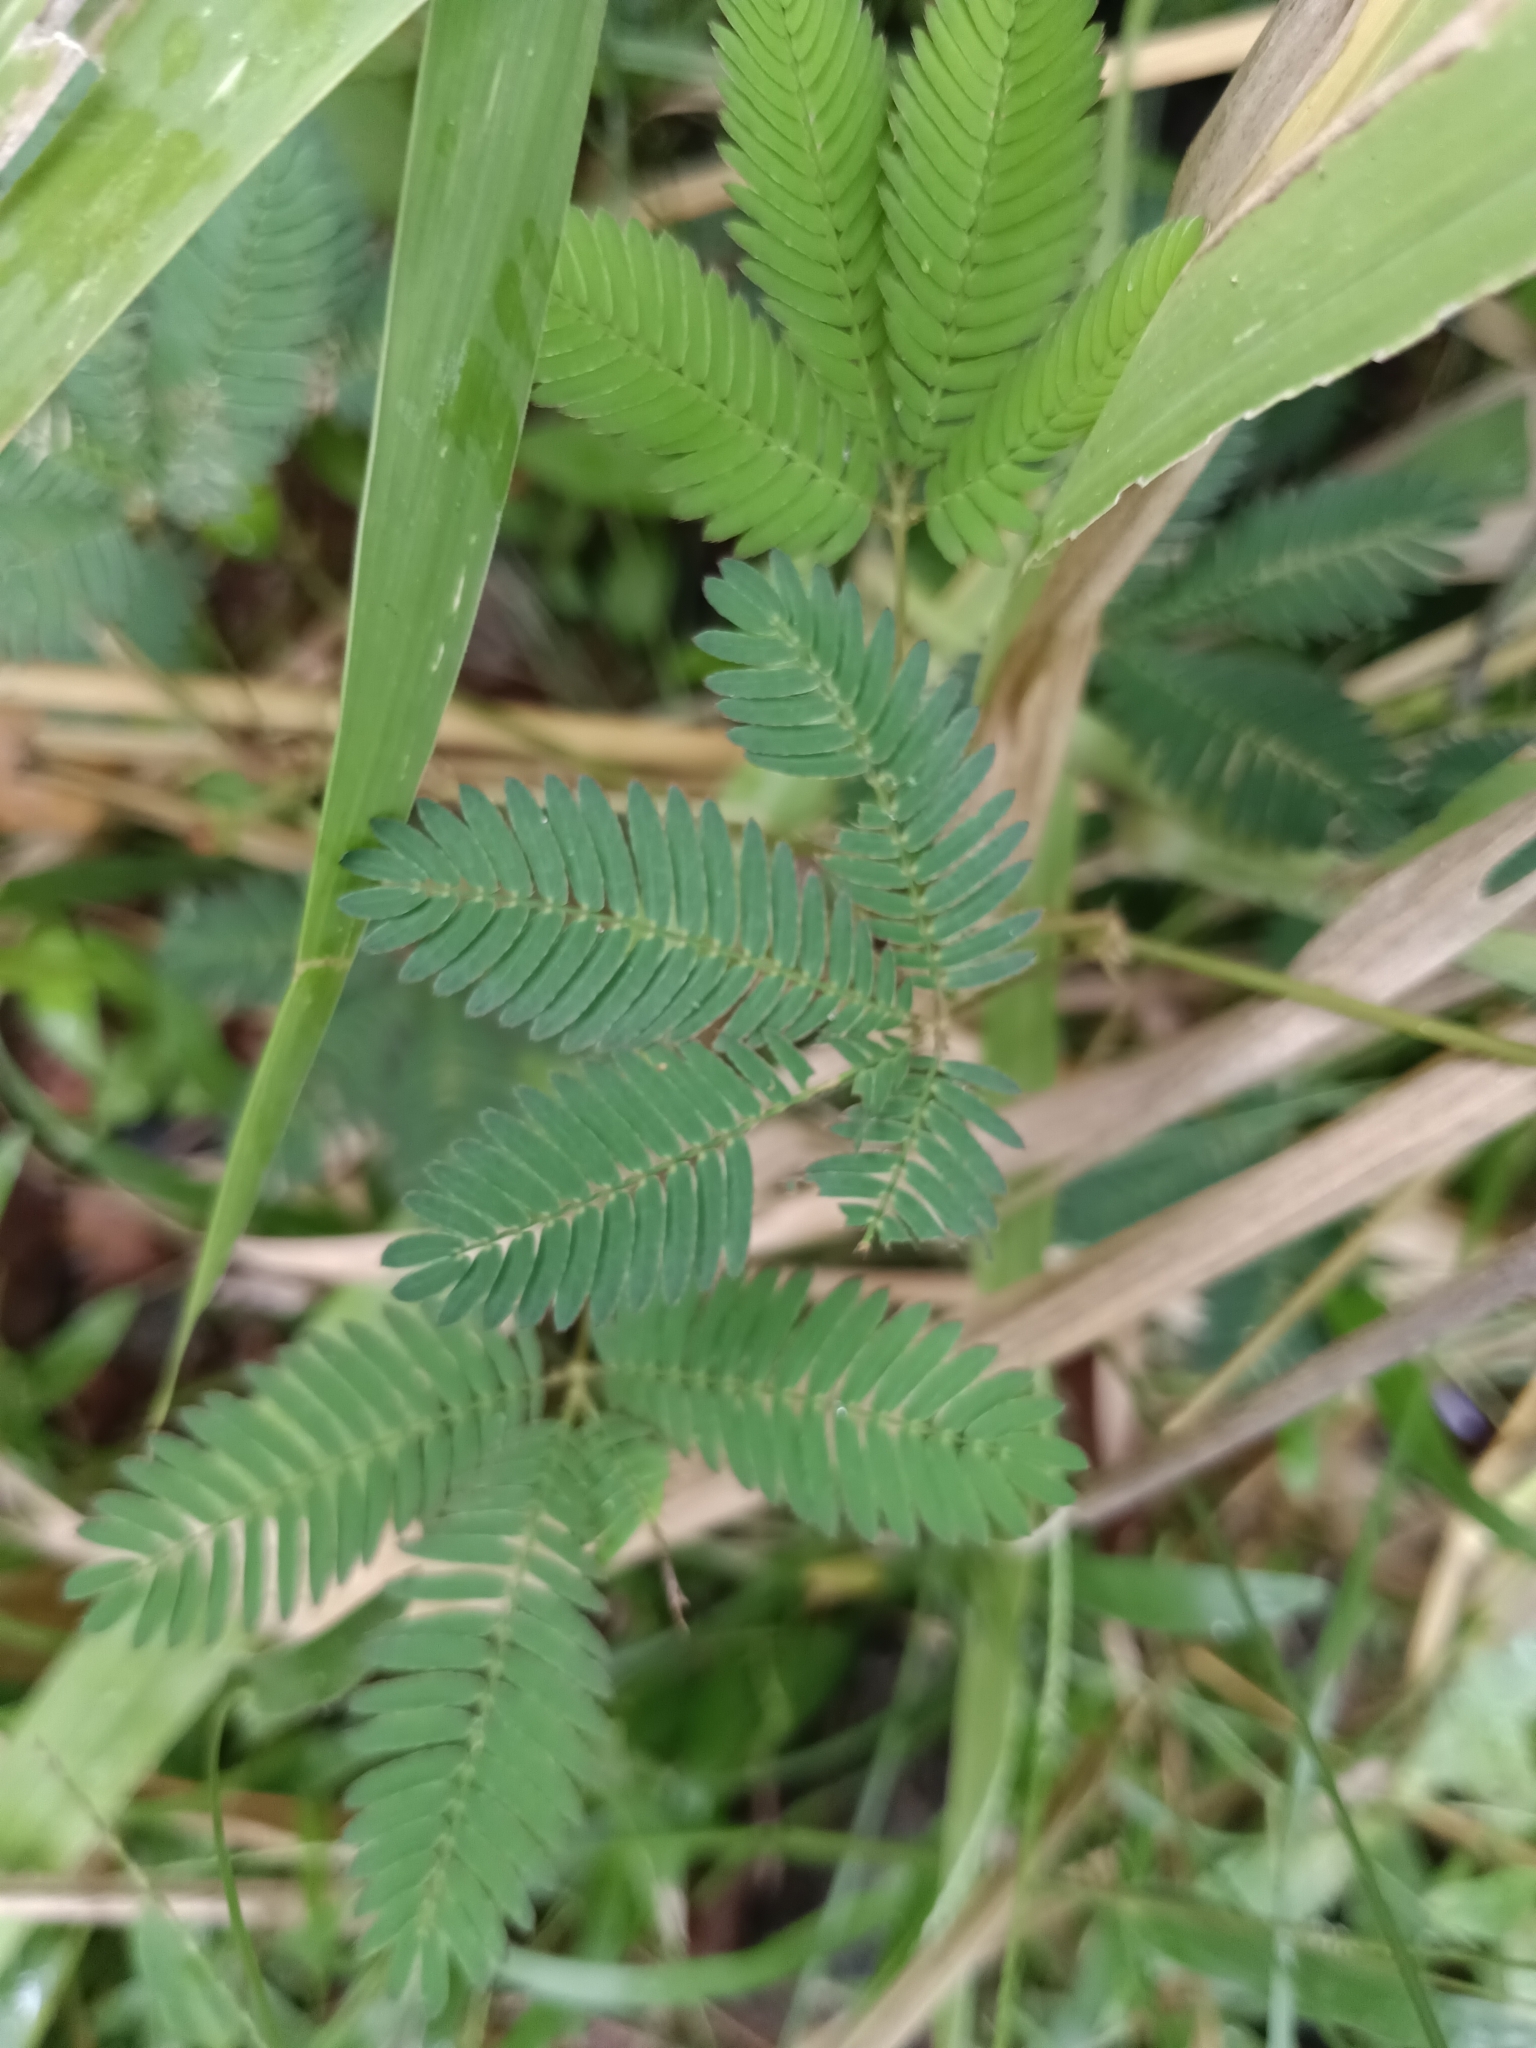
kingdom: Plantae
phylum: Tracheophyta
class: Magnoliopsida
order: Fabales
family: Fabaceae
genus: Mimosa
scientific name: Mimosa pudica
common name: Sensitive plant
